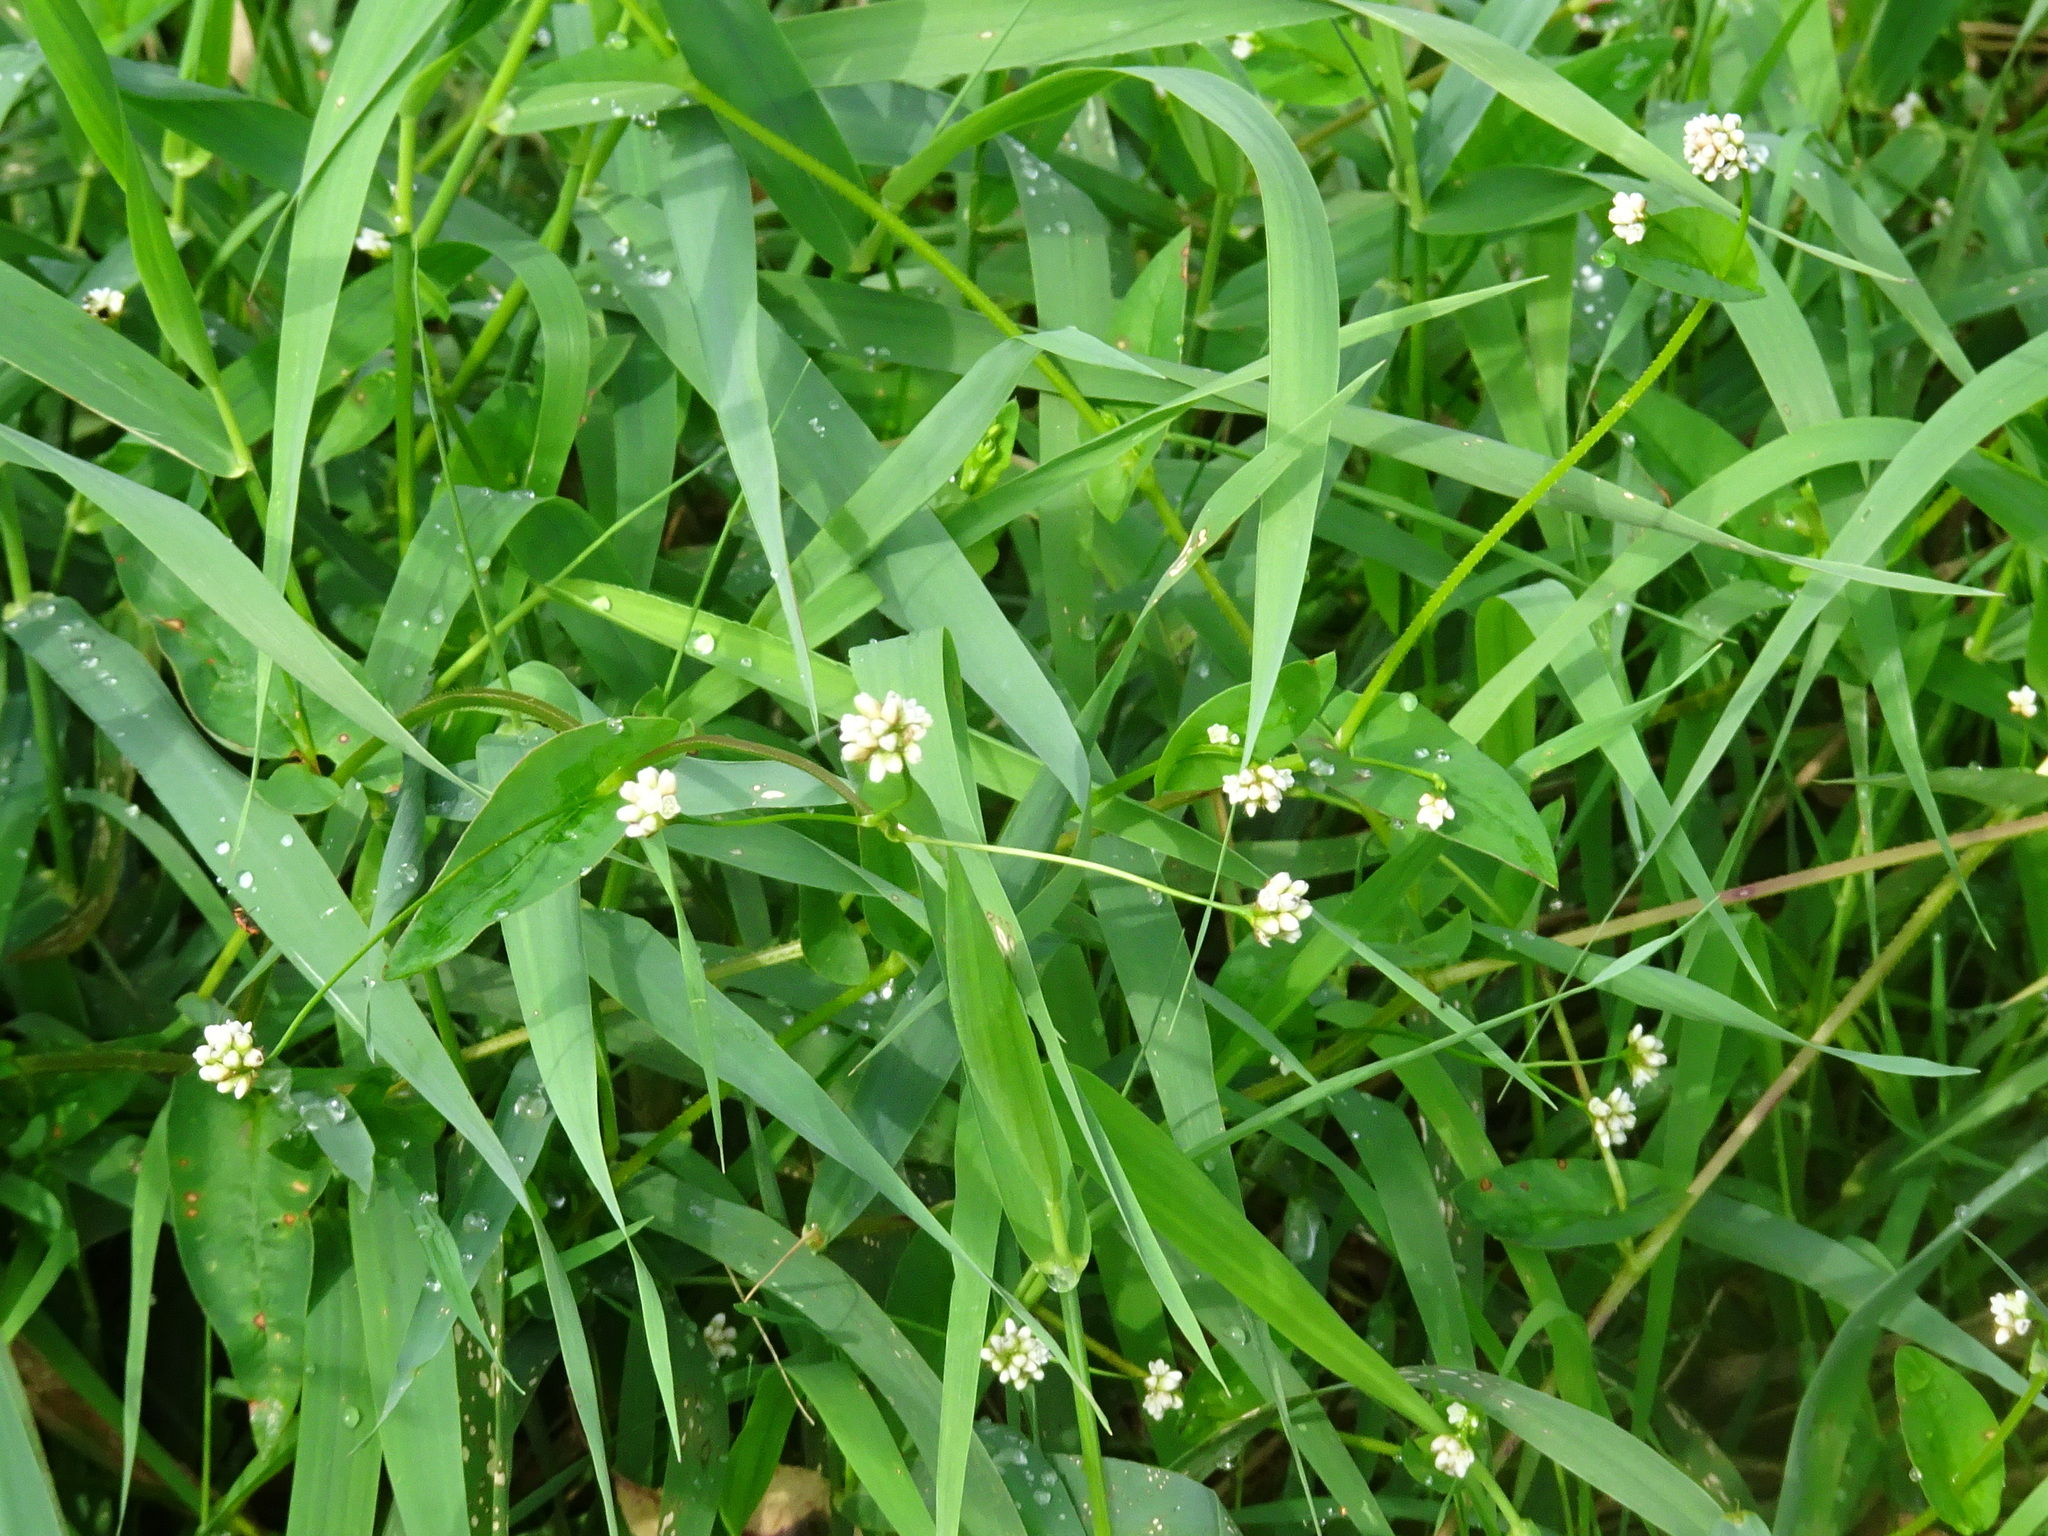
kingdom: Plantae
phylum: Tracheophyta
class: Magnoliopsida
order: Caryophyllales
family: Polygonaceae
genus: Persicaria
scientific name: Persicaria sagittata
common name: American tearthumb
